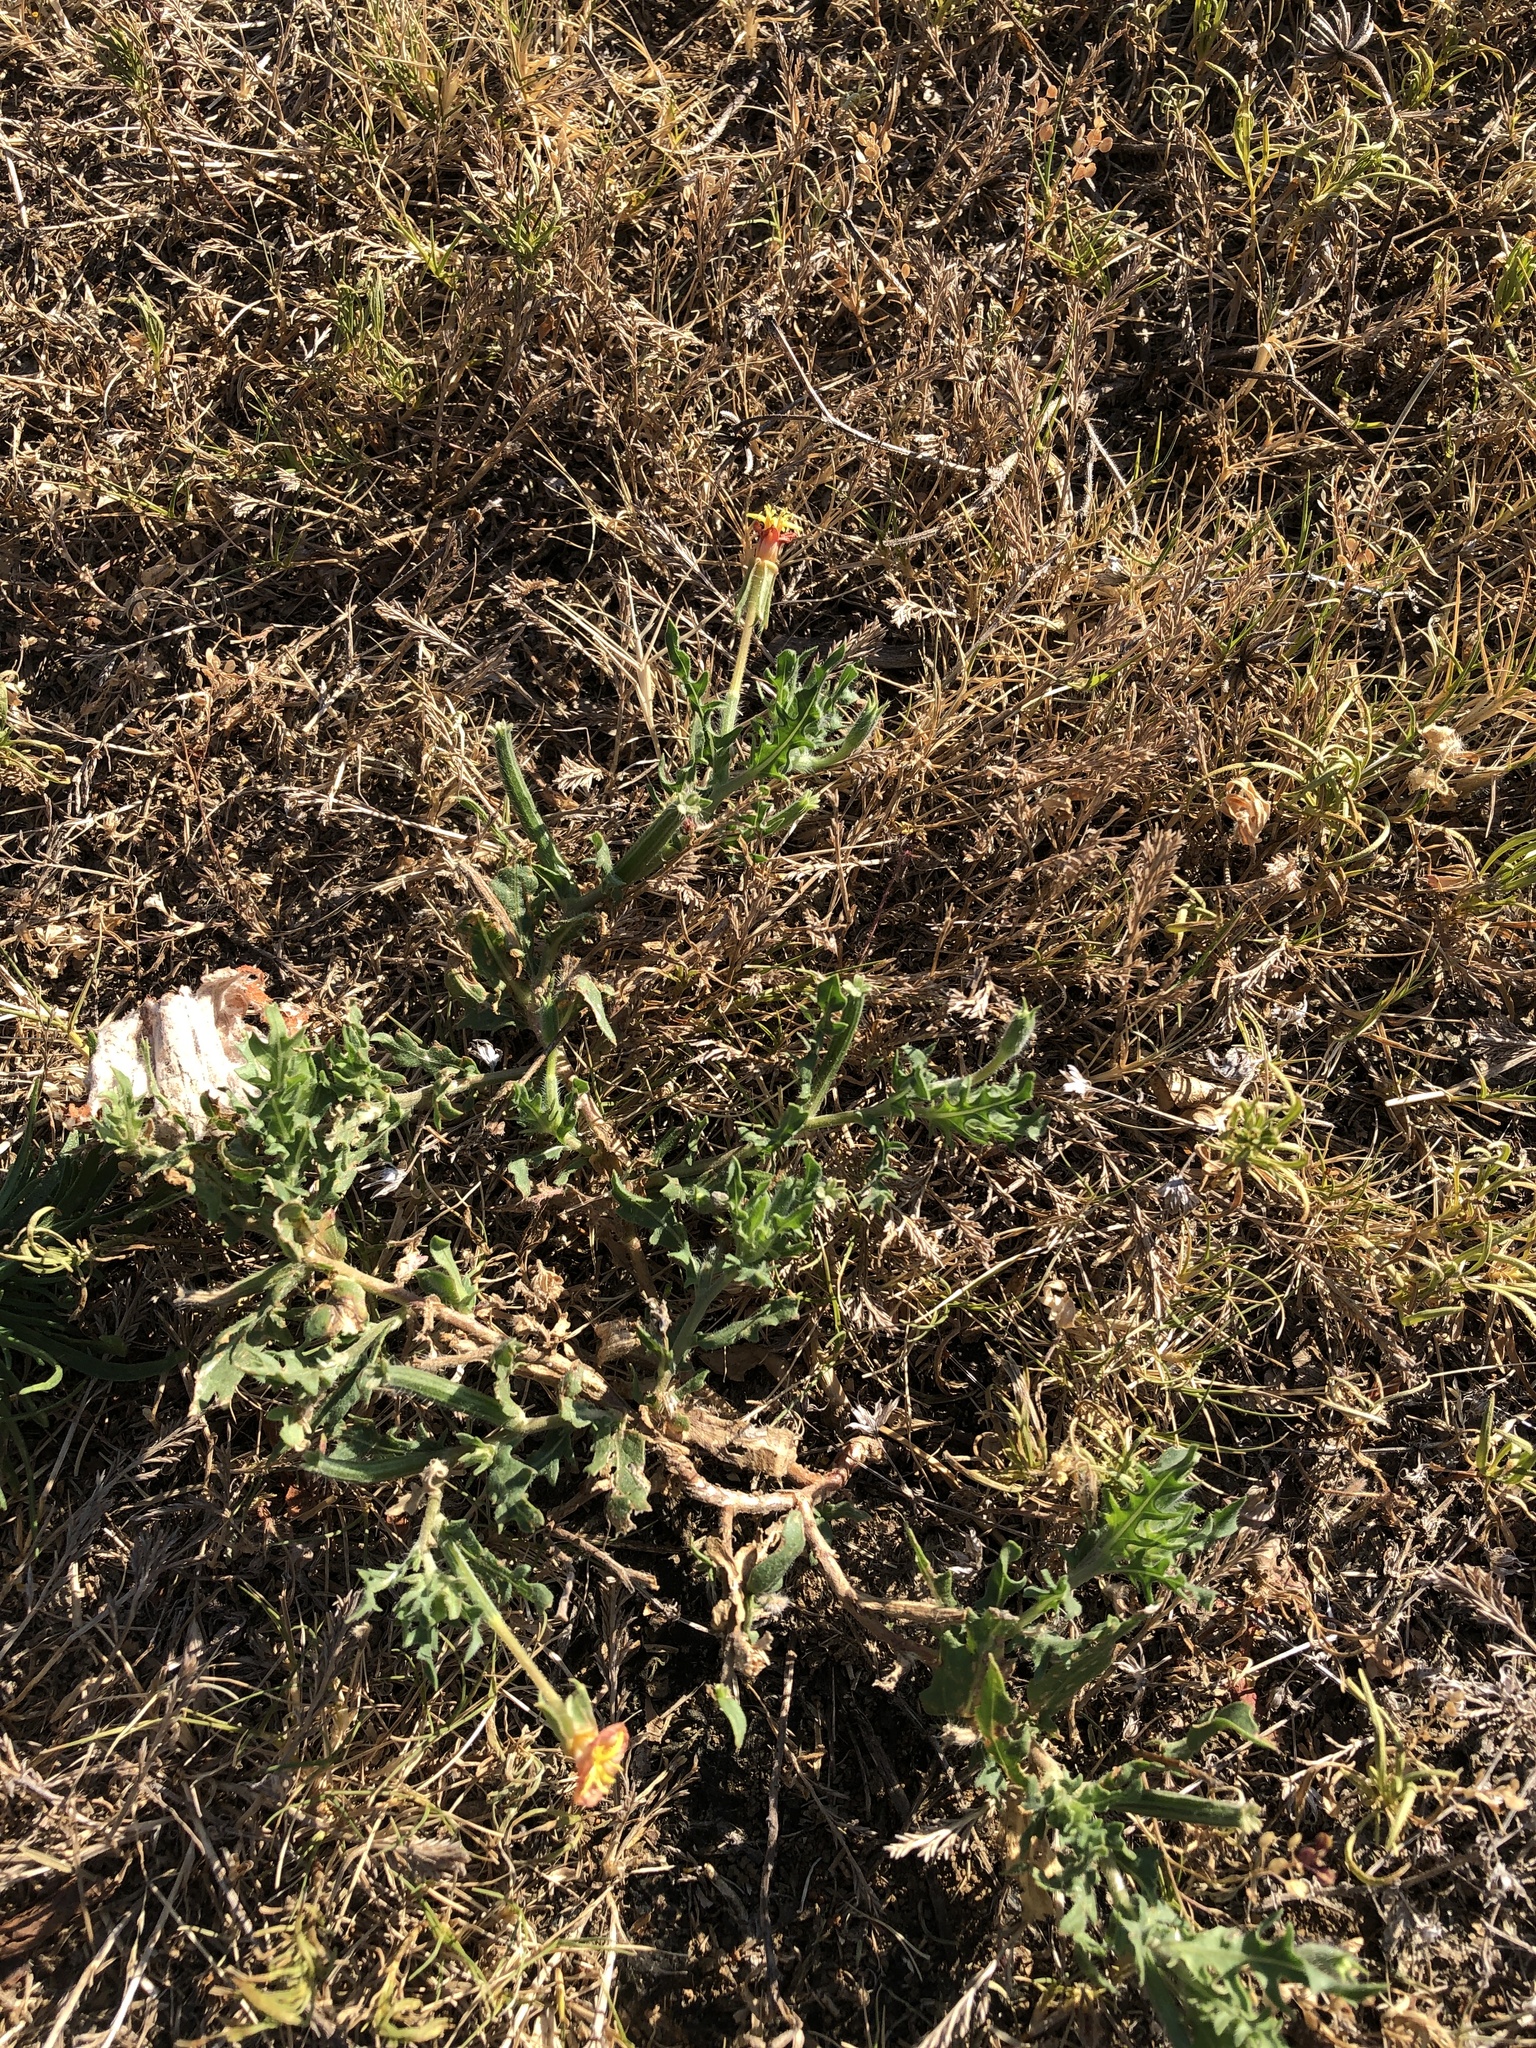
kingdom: Plantae
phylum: Tracheophyta
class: Magnoliopsida
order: Myrtales
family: Onagraceae
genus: Oenothera
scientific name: Oenothera laciniata
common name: Cut-leaved evening-primrose
